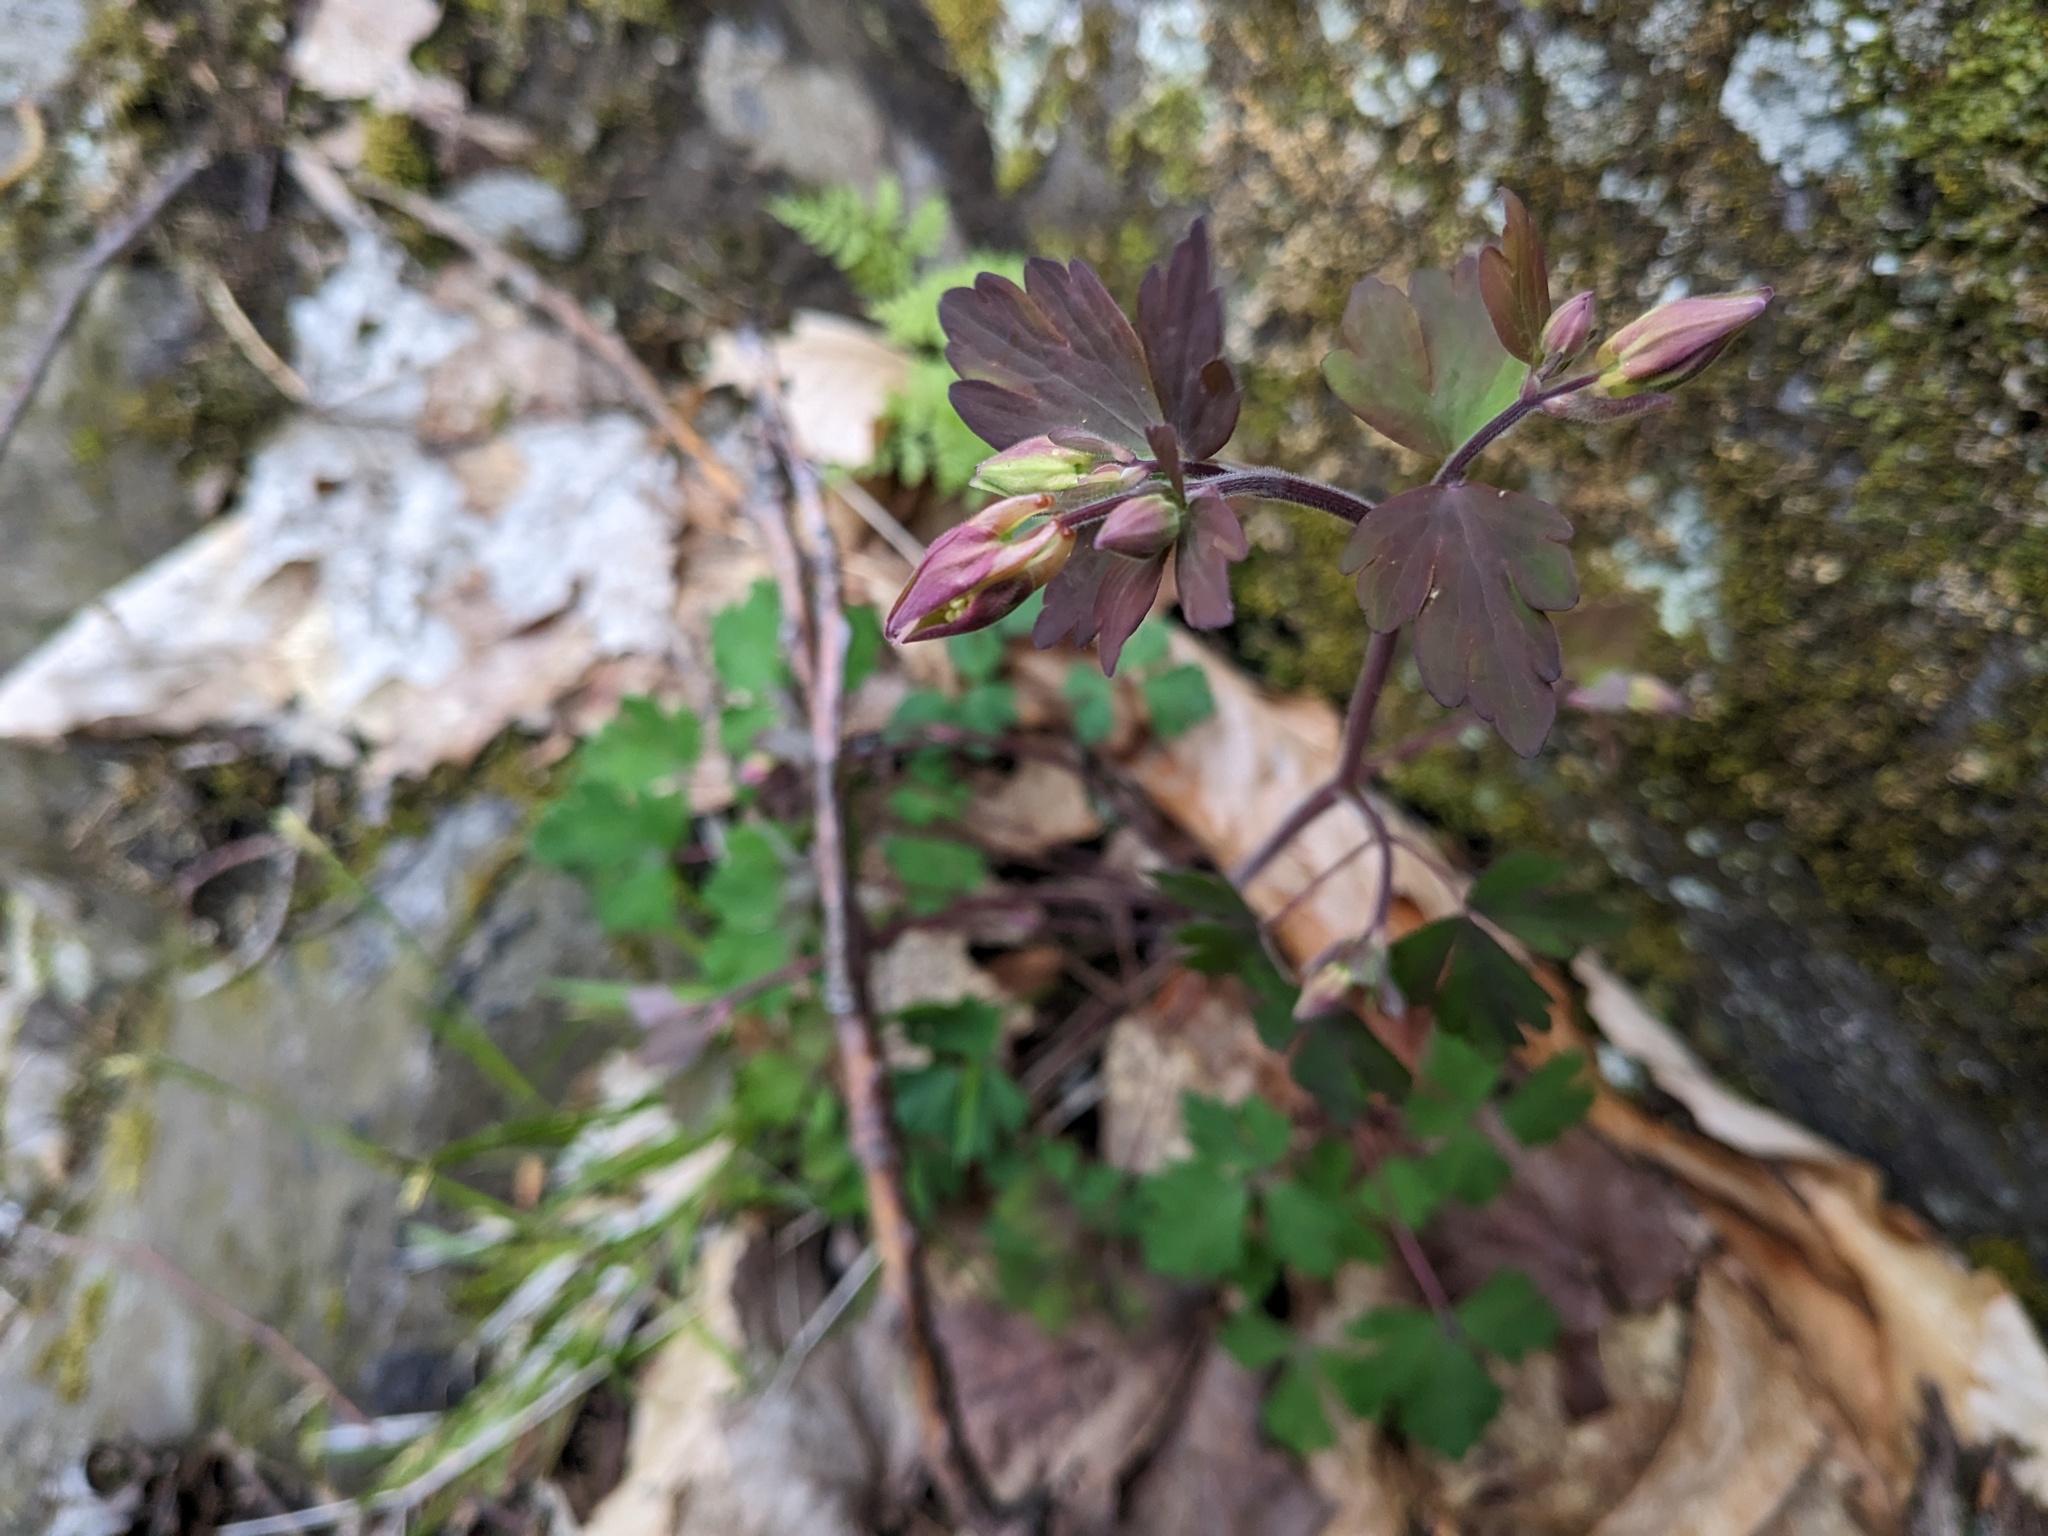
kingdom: Plantae
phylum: Tracheophyta
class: Magnoliopsida
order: Ranunculales
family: Ranunculaceae
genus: Aquilegia
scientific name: Aquilegia canadensis
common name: American columbine
